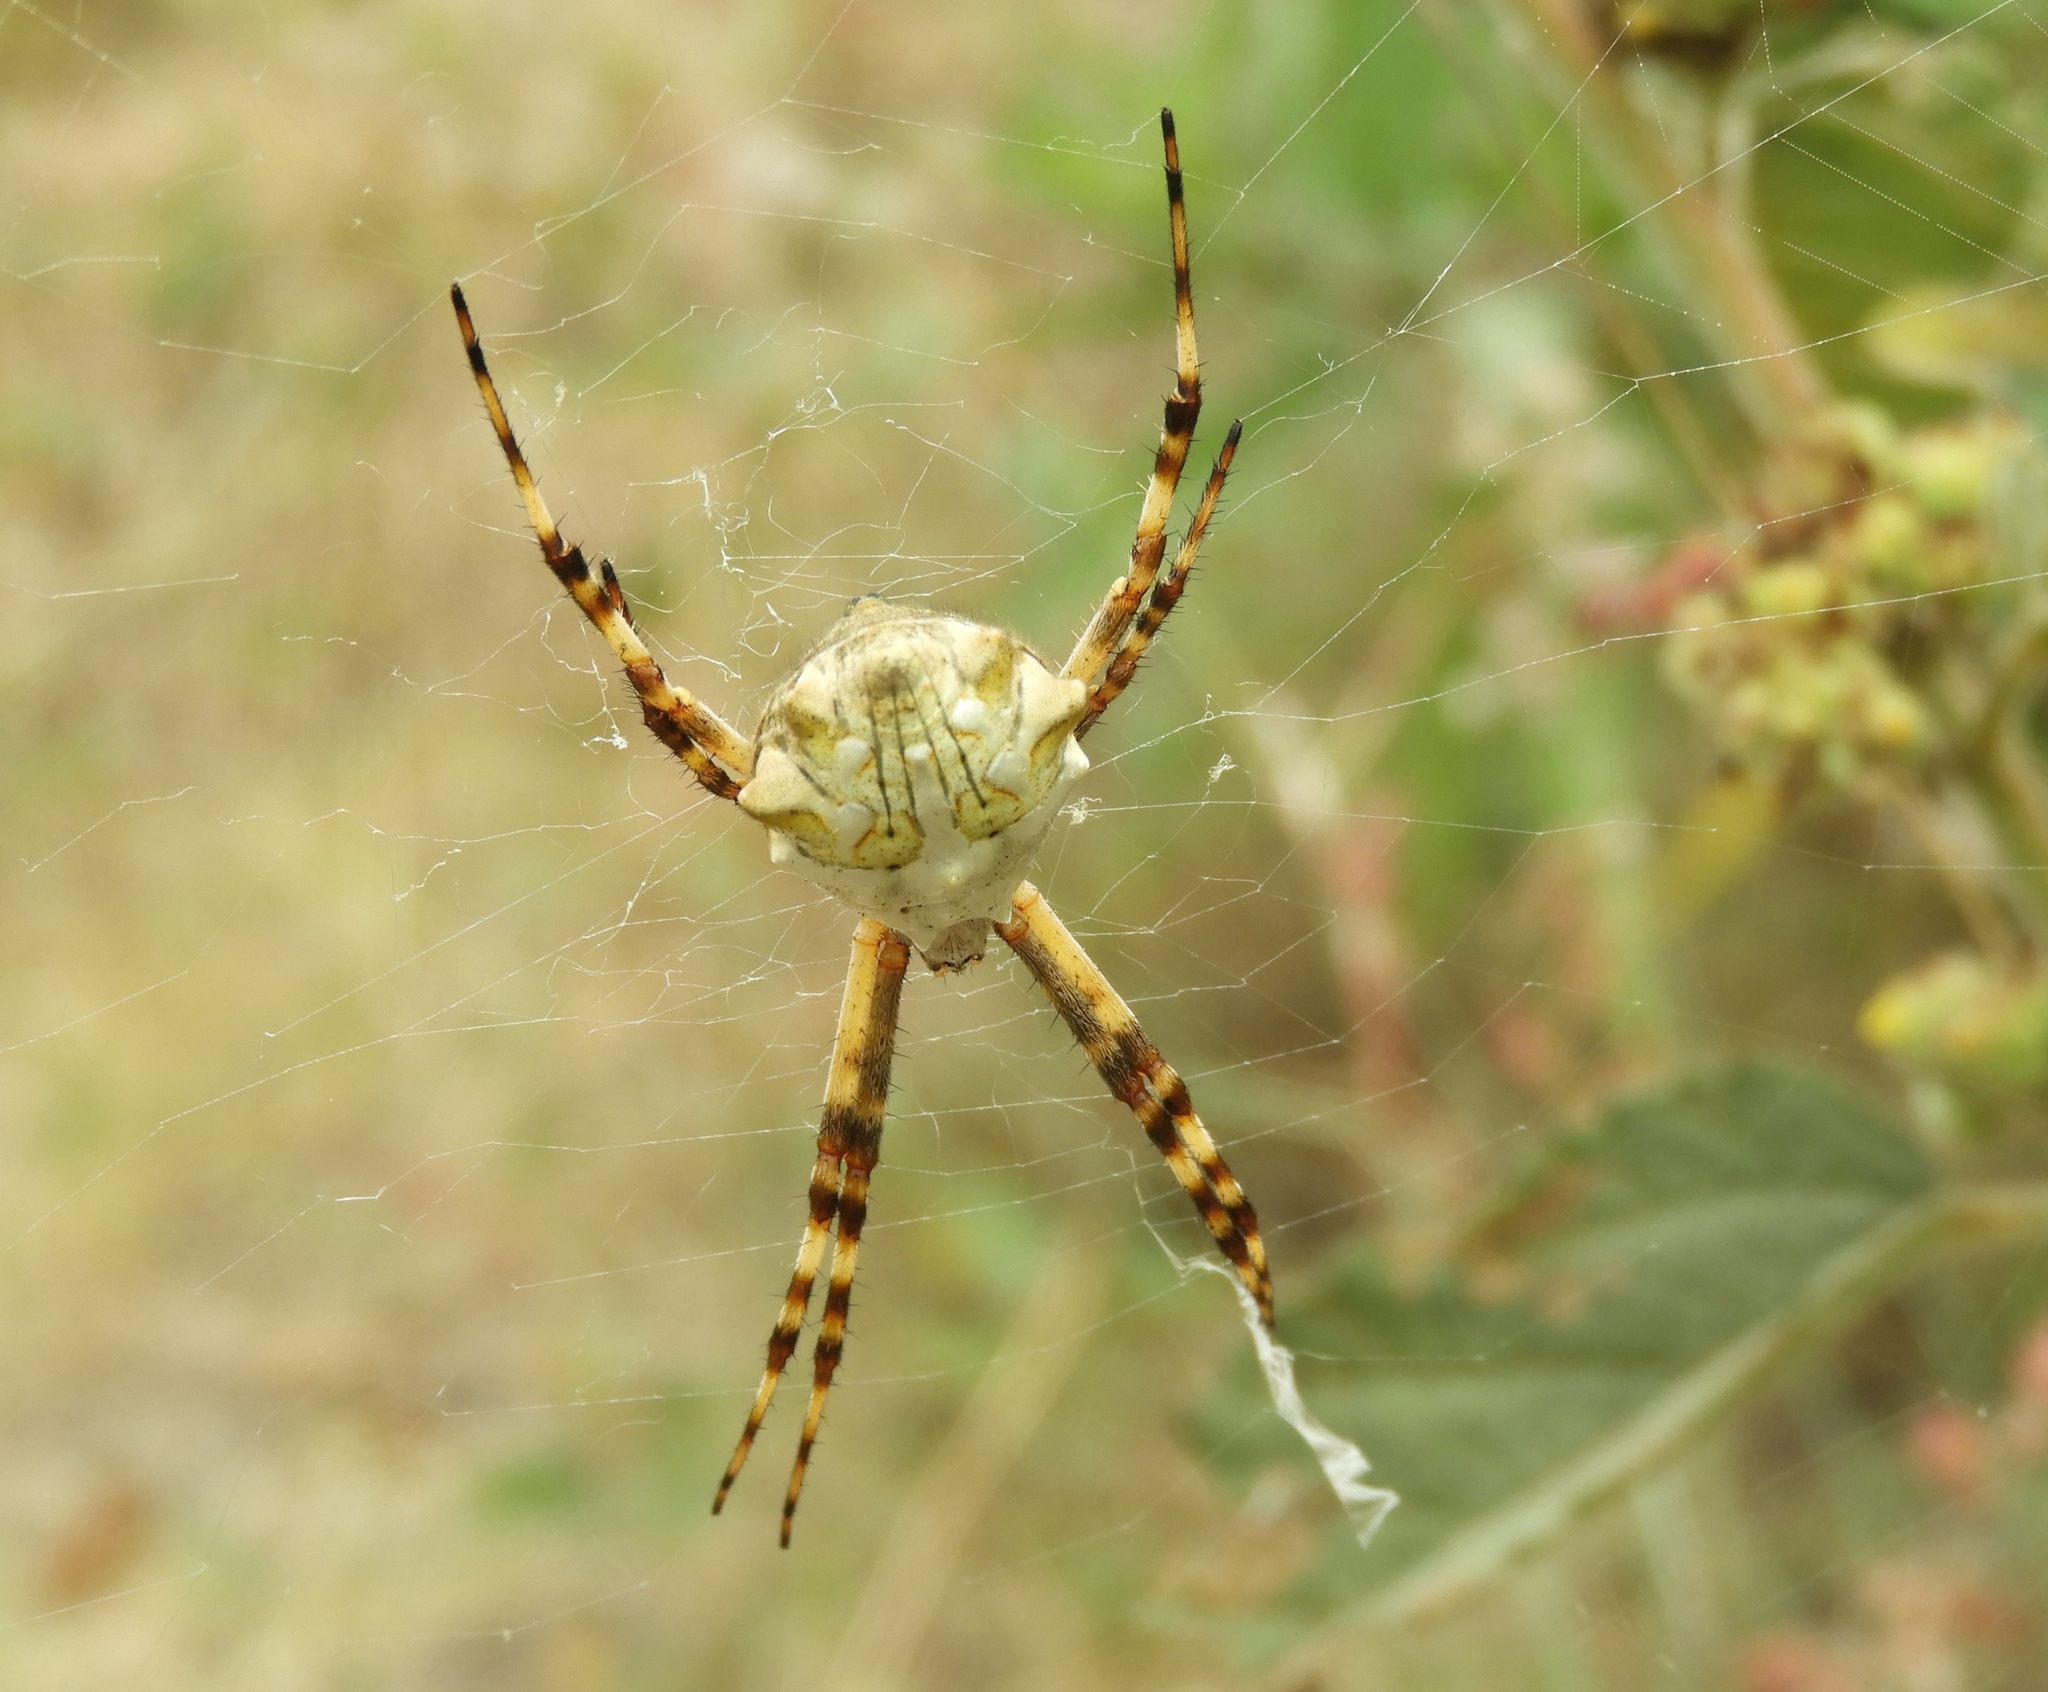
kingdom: Animalia
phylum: Arthropoda
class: Arachnida
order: Araneae
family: Araneidae
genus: Argiope
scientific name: Argiope argentata
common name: Orb weavers
